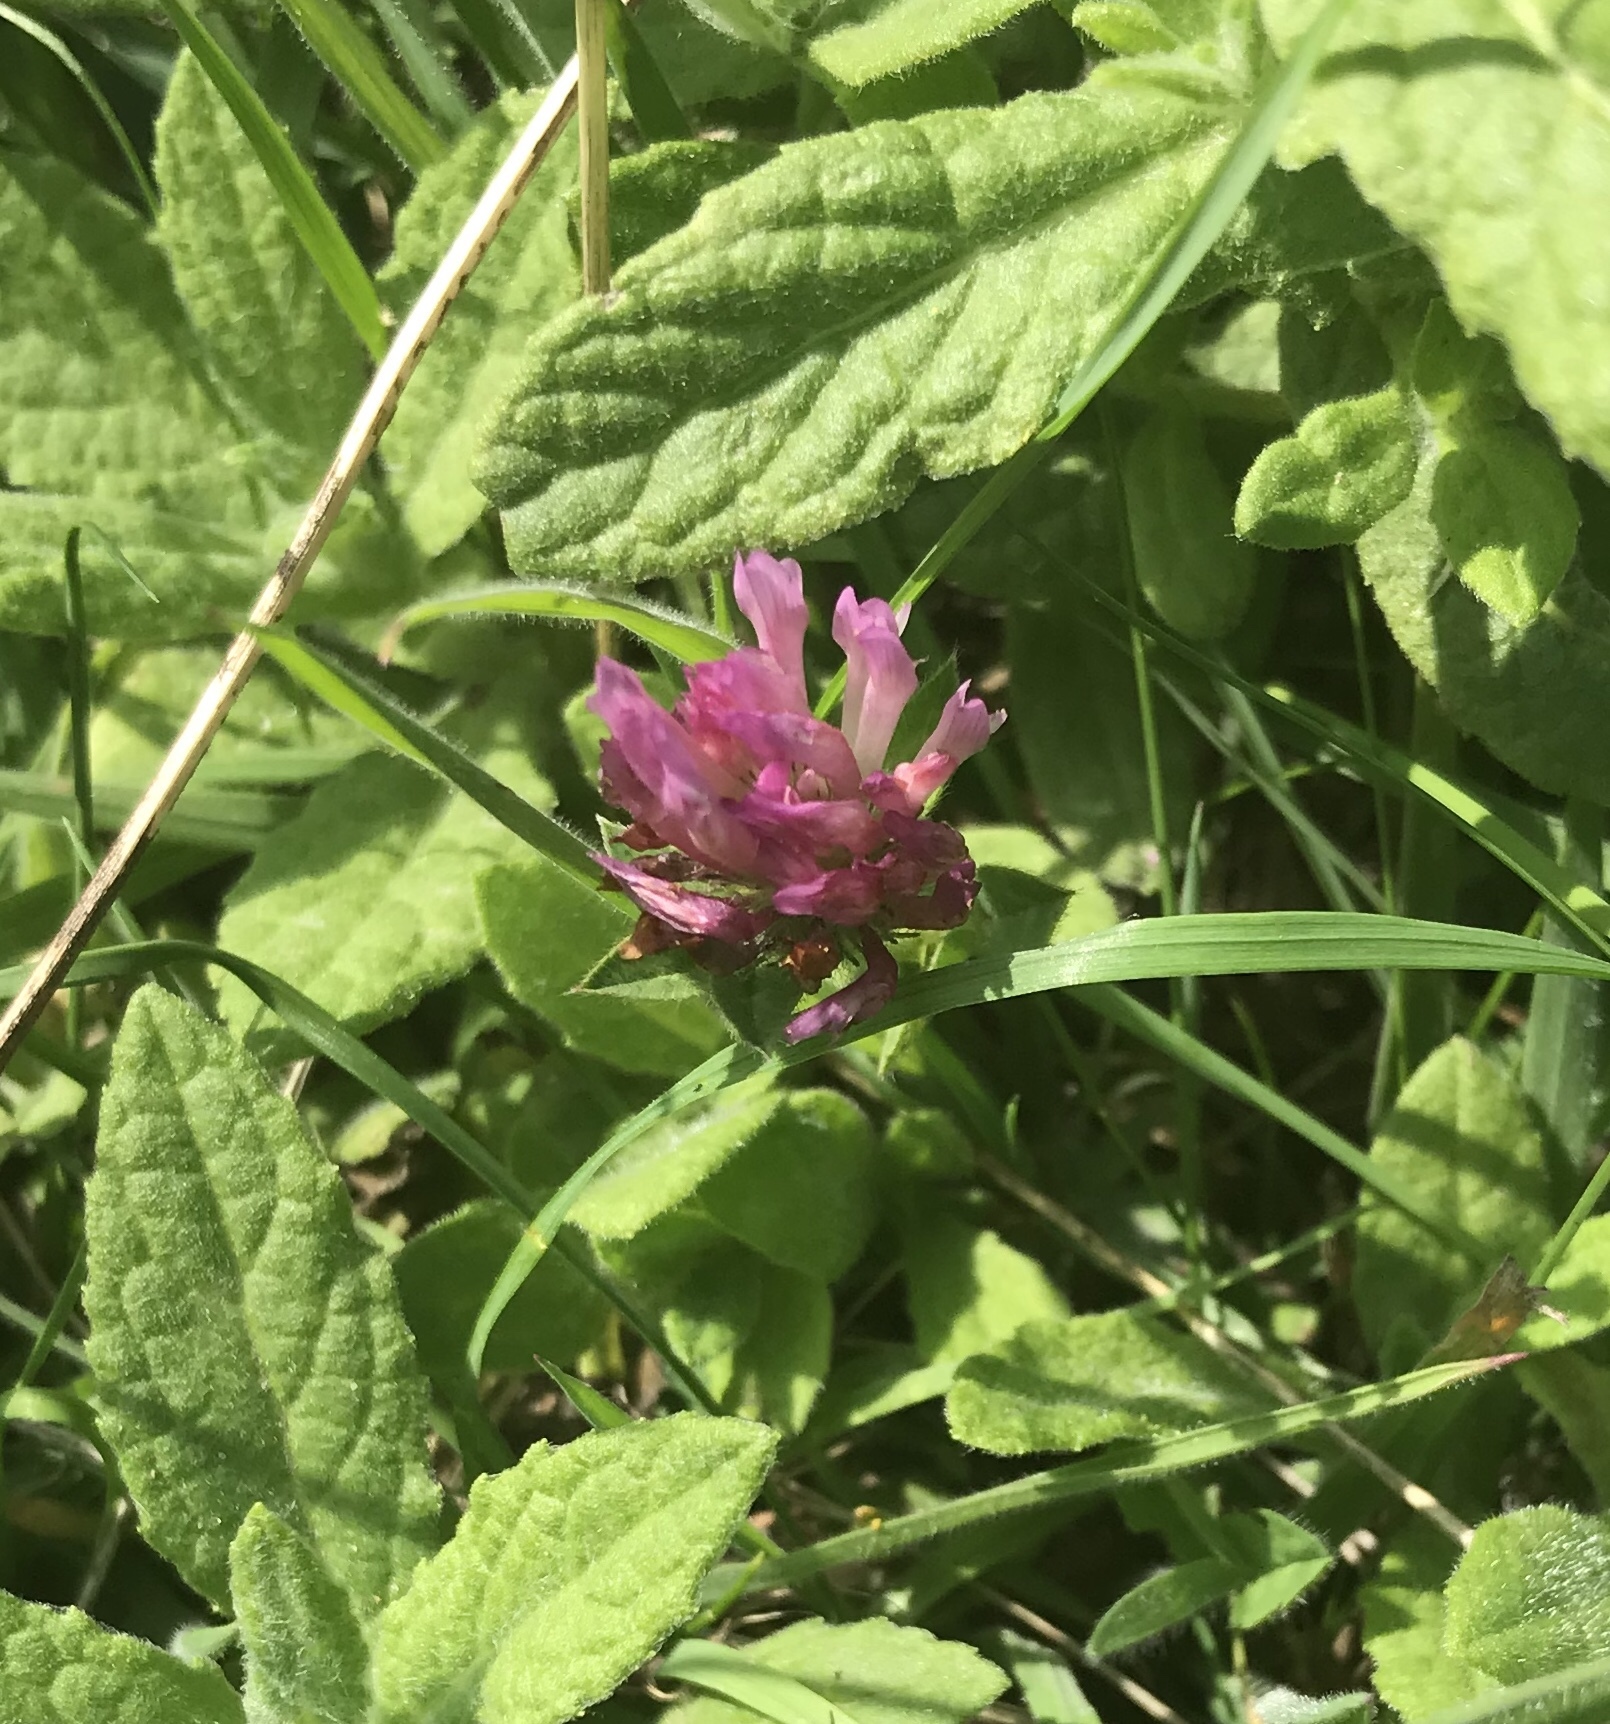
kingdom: Plantae
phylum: Tracheophyta
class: Magnoliopsida
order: Fabales
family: Fabaceae
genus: Trifolium
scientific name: Trifolium pratense
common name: Red clover
